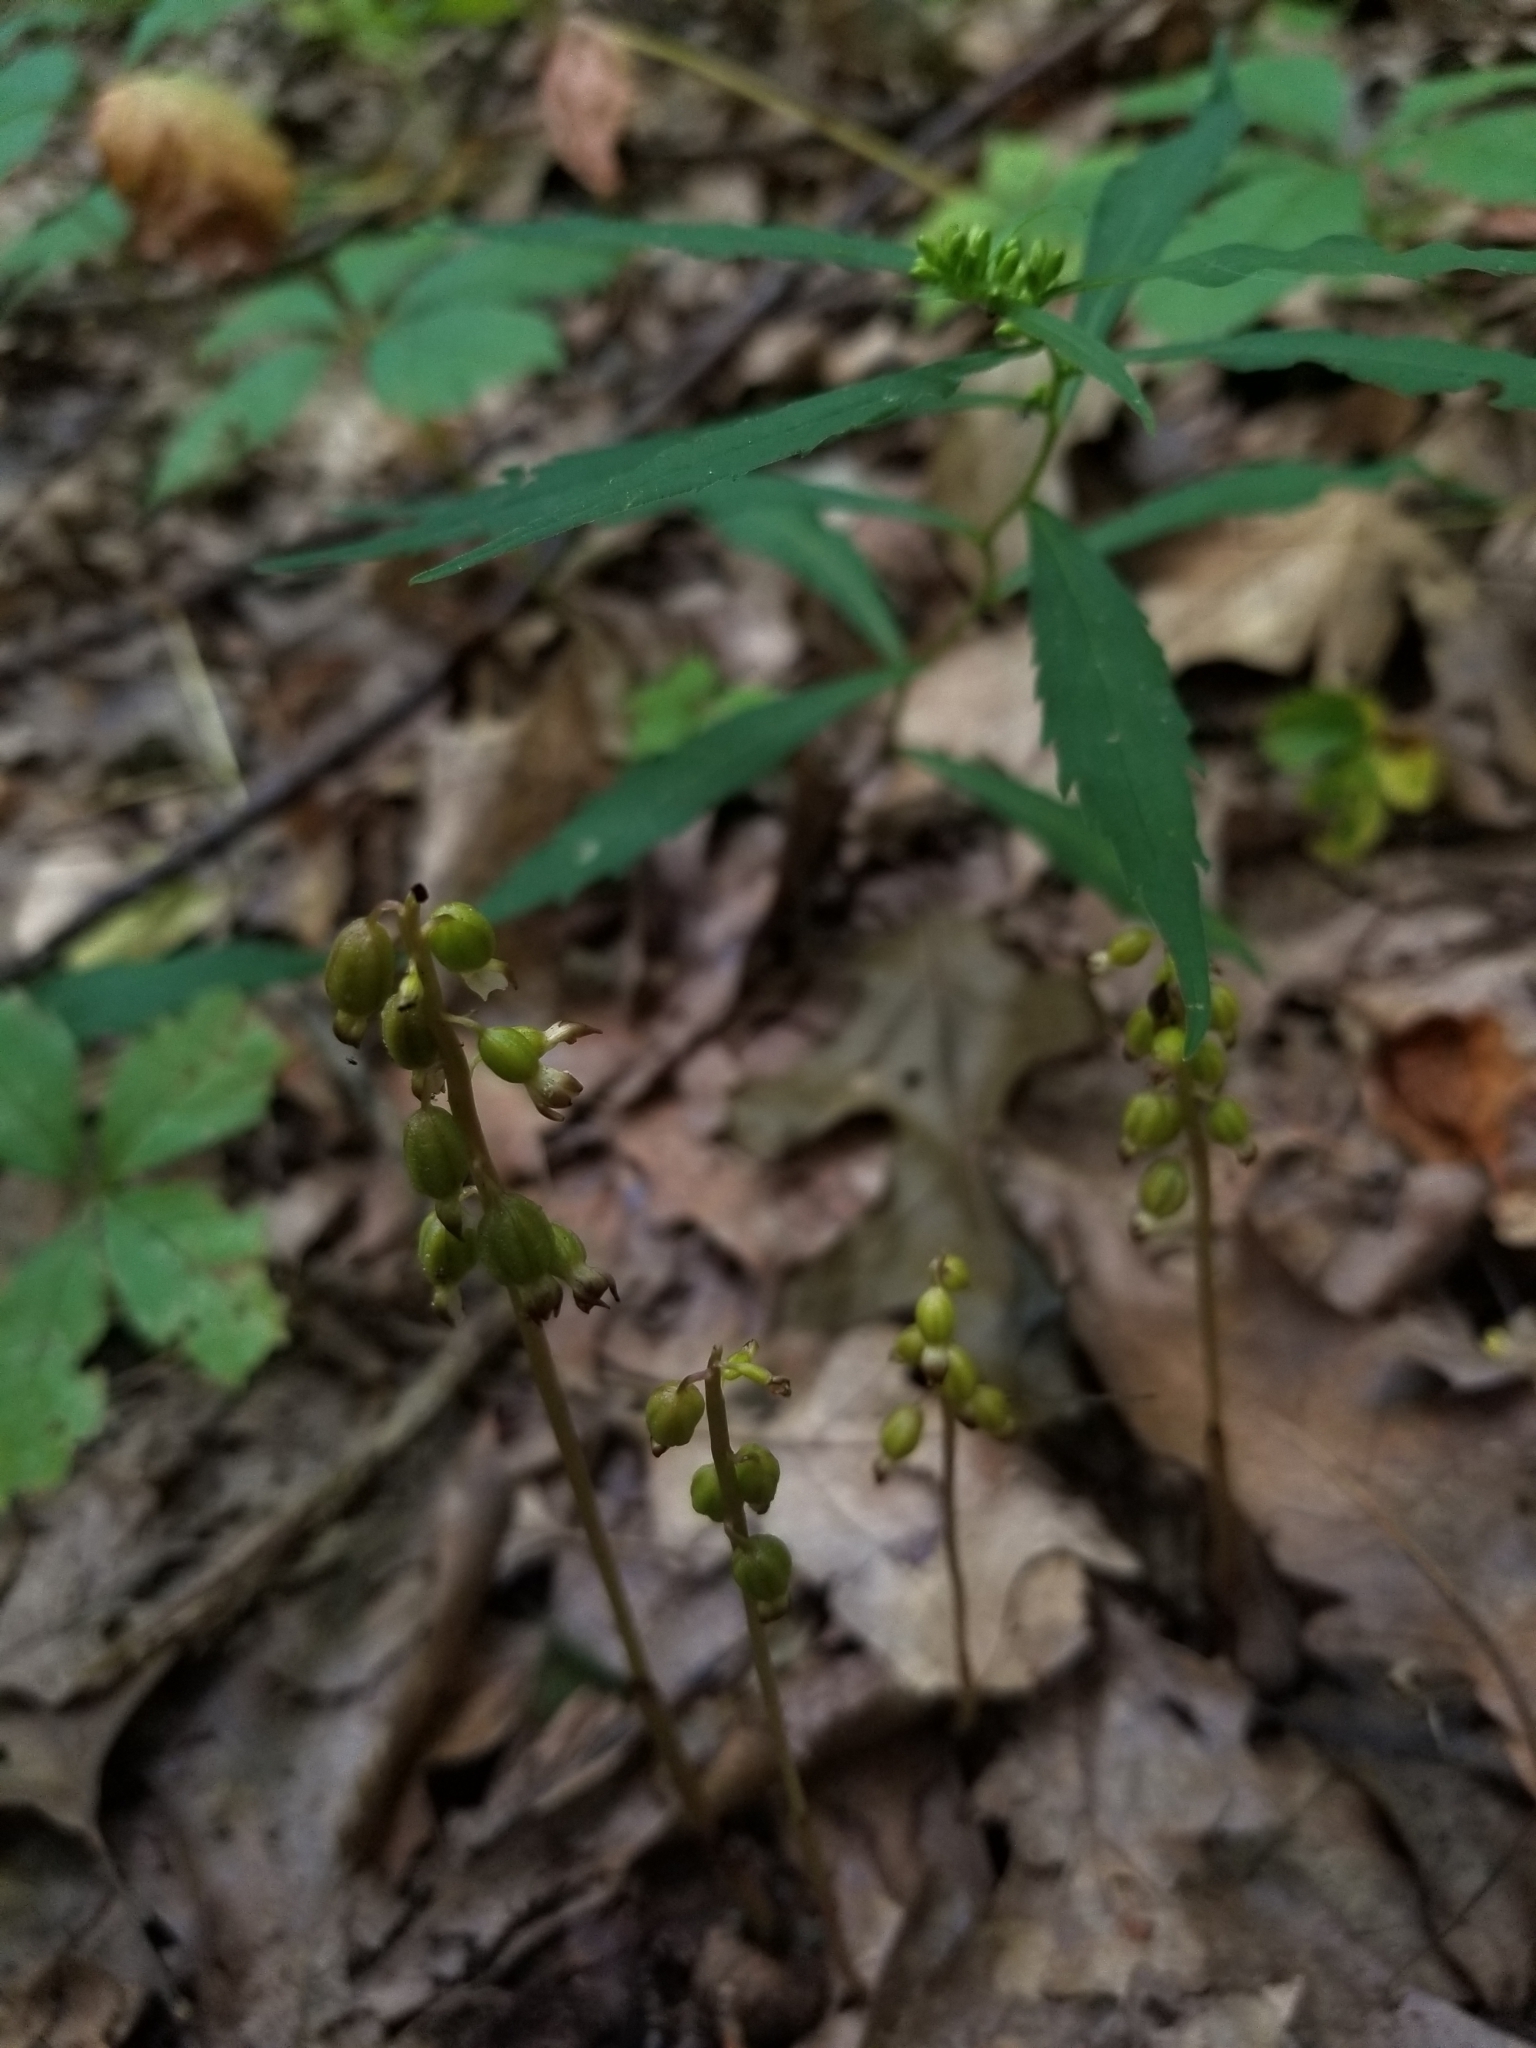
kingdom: Plantae
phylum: Tracheophyta
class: Liliopsida
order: Asparagales
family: Orchidaceae
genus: Corallorhiza
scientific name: Corallorhiza odontorhiza
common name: Autumn coralroot
